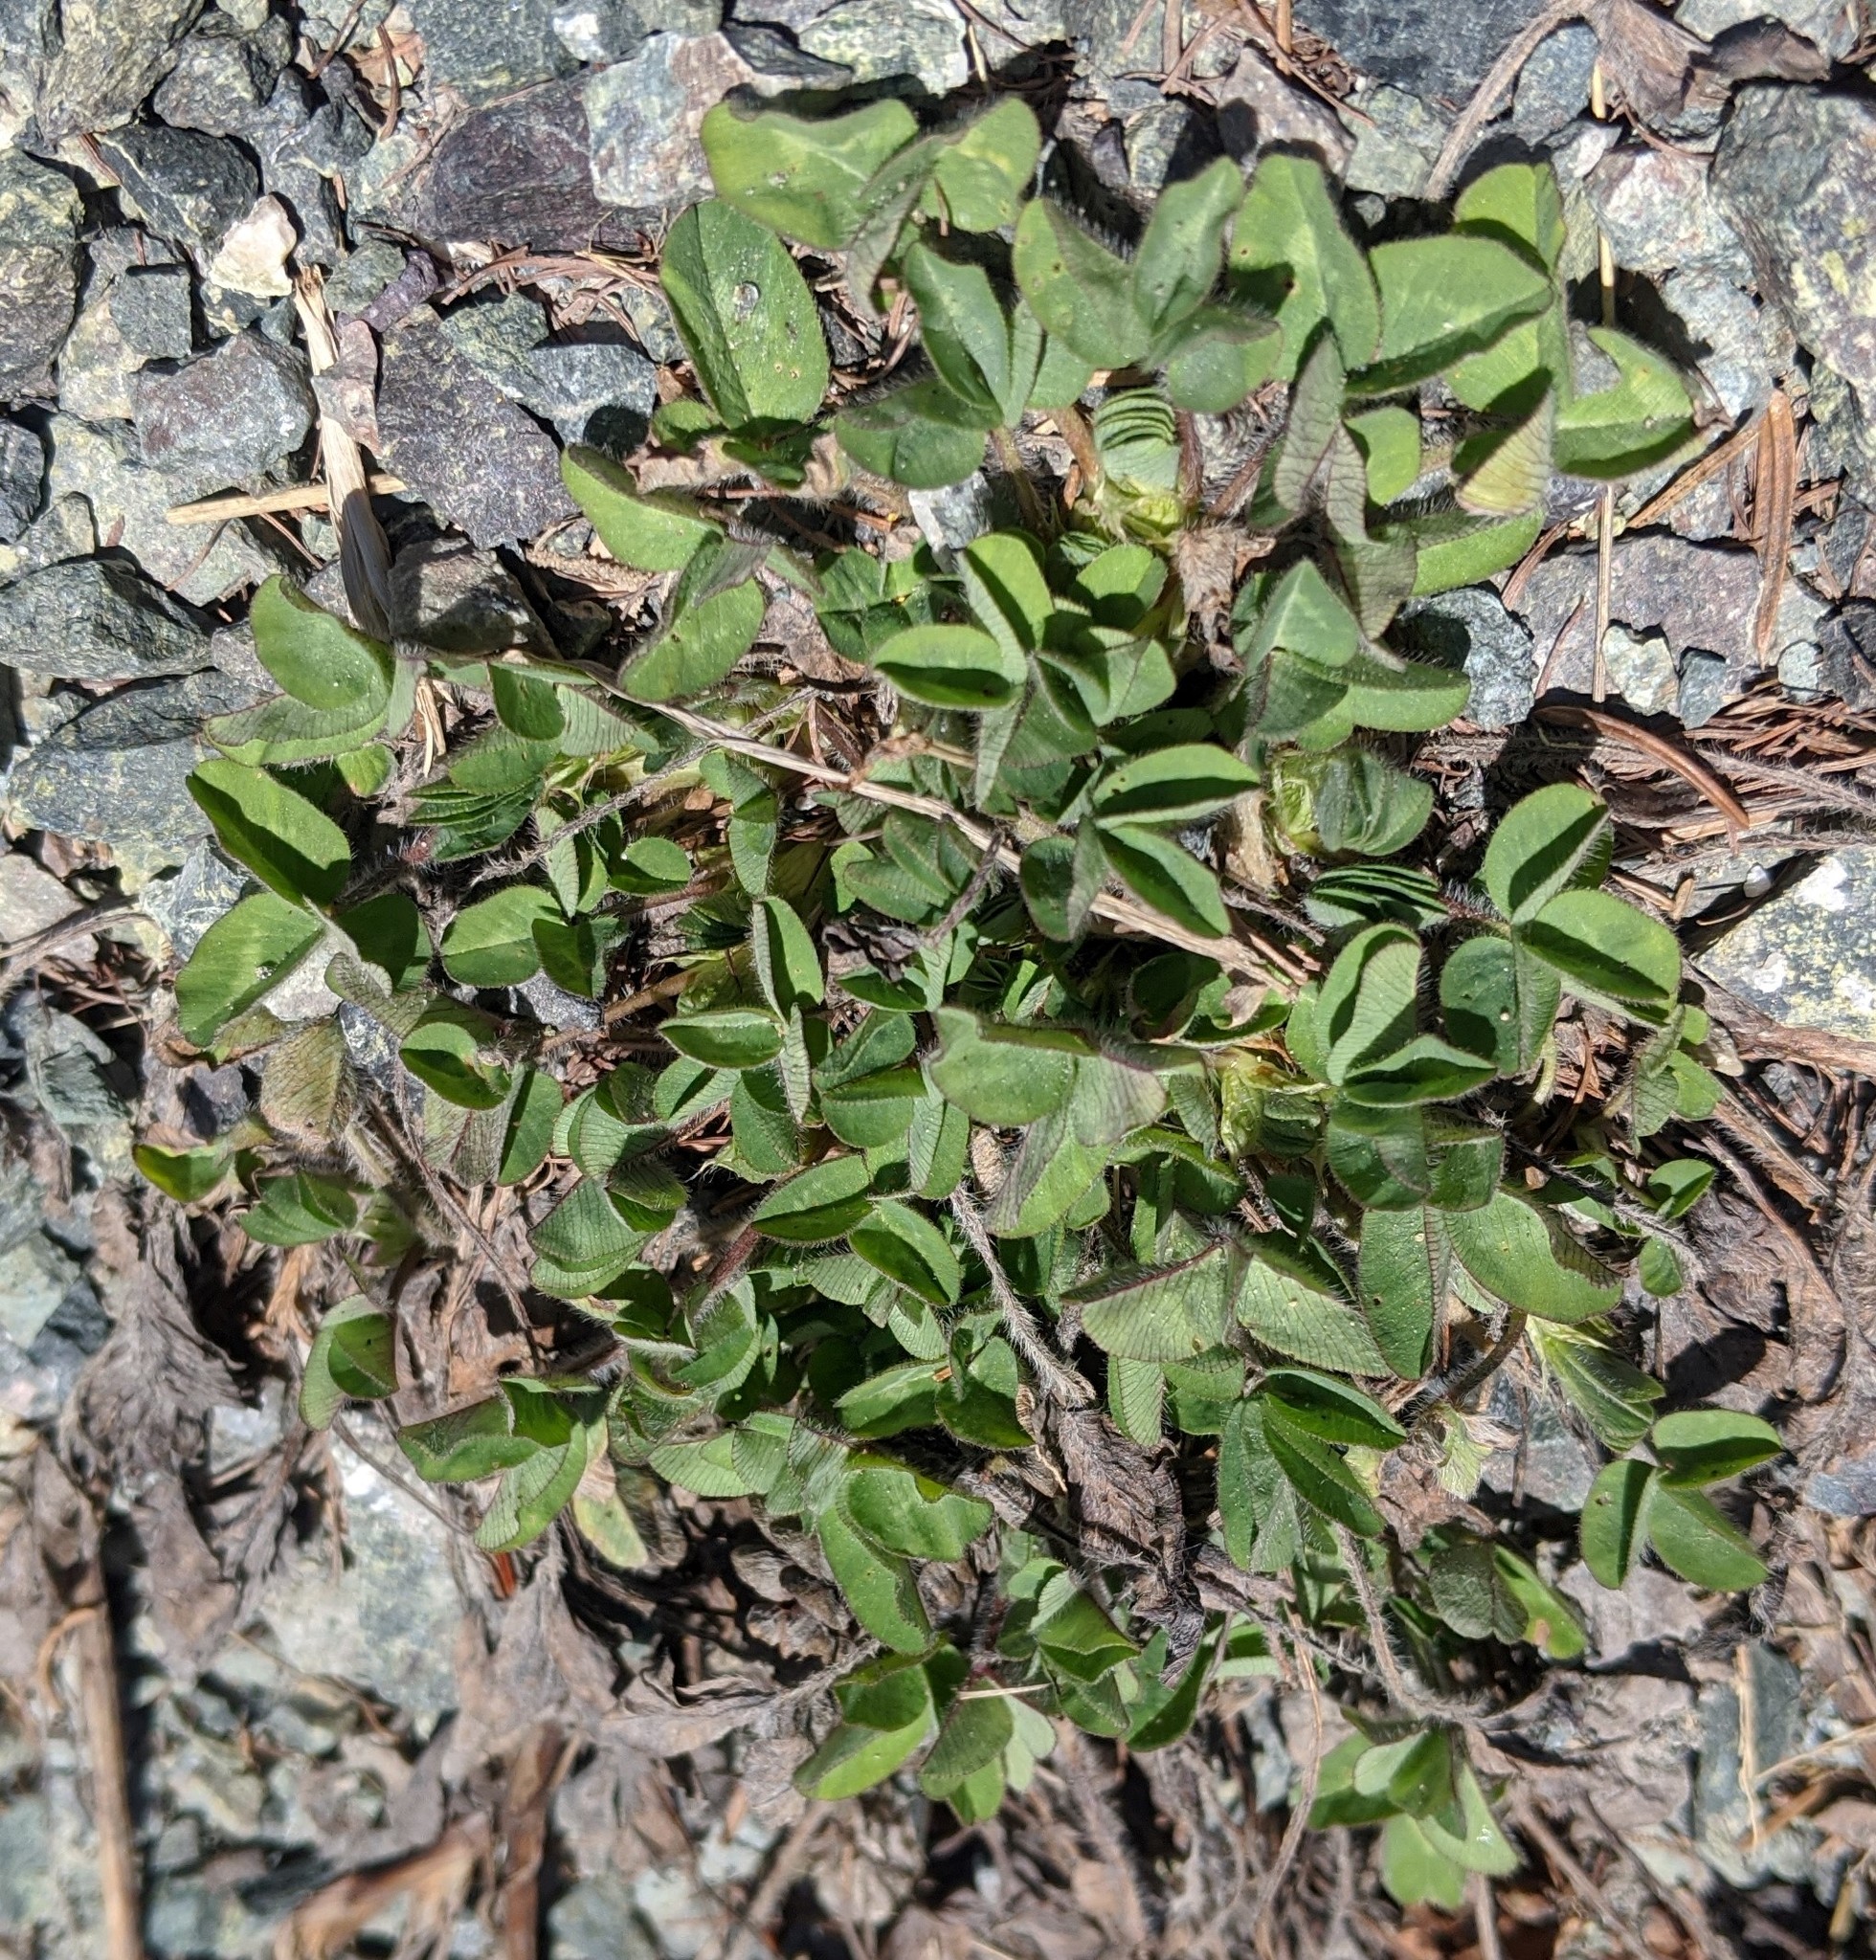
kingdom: Plantae
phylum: Tracheophyta
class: Magnoliopsida
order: Fabales
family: Fabaceae
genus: Trifolium
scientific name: Trifolium pratense
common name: Red clover
